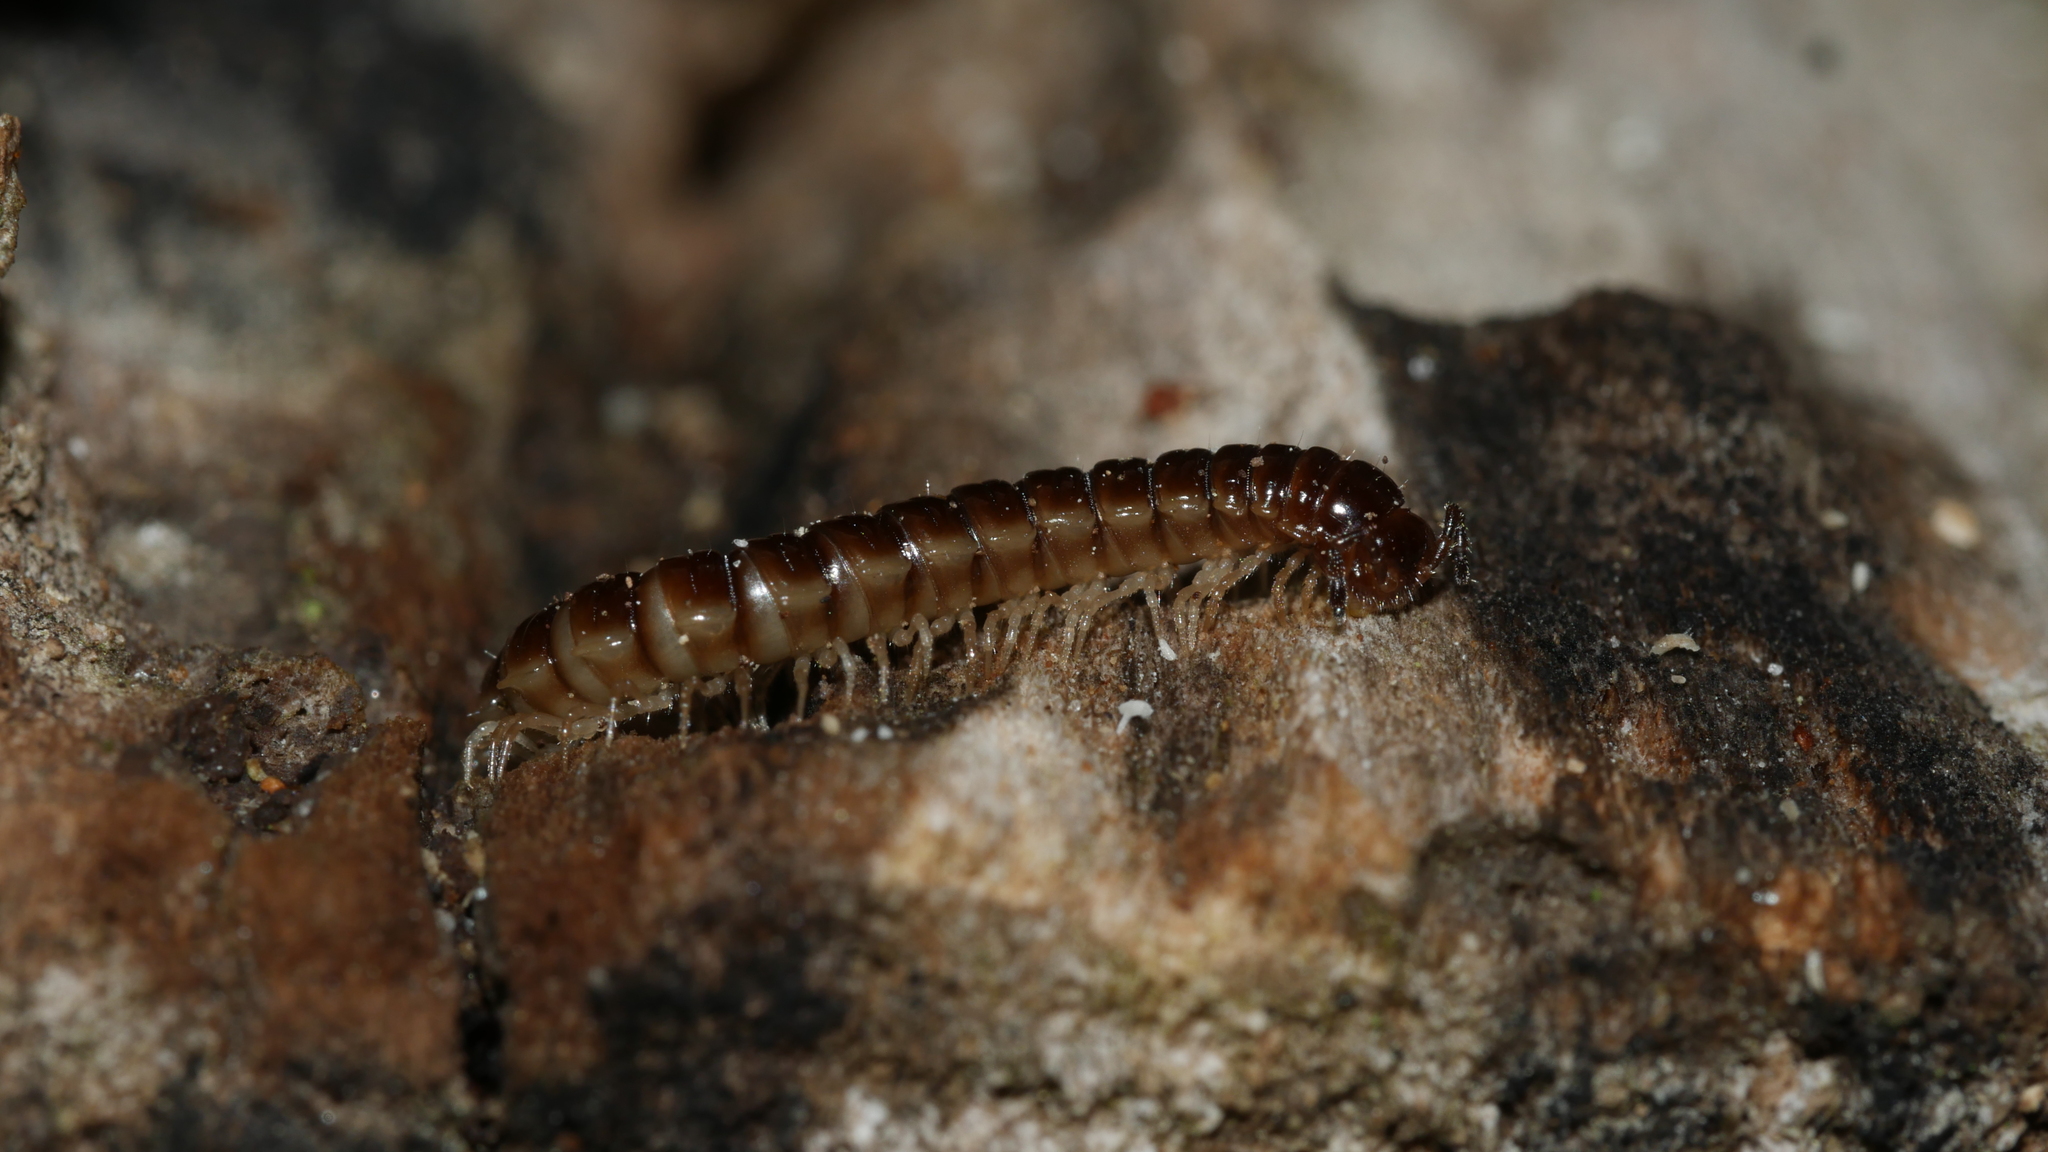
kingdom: Animalia
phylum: Arthropoda
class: Diplopoda
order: Polydesmida
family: Paradoxosomatidae
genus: Oxidus
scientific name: Oxidus gracilis
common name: Greenhouse millipede
